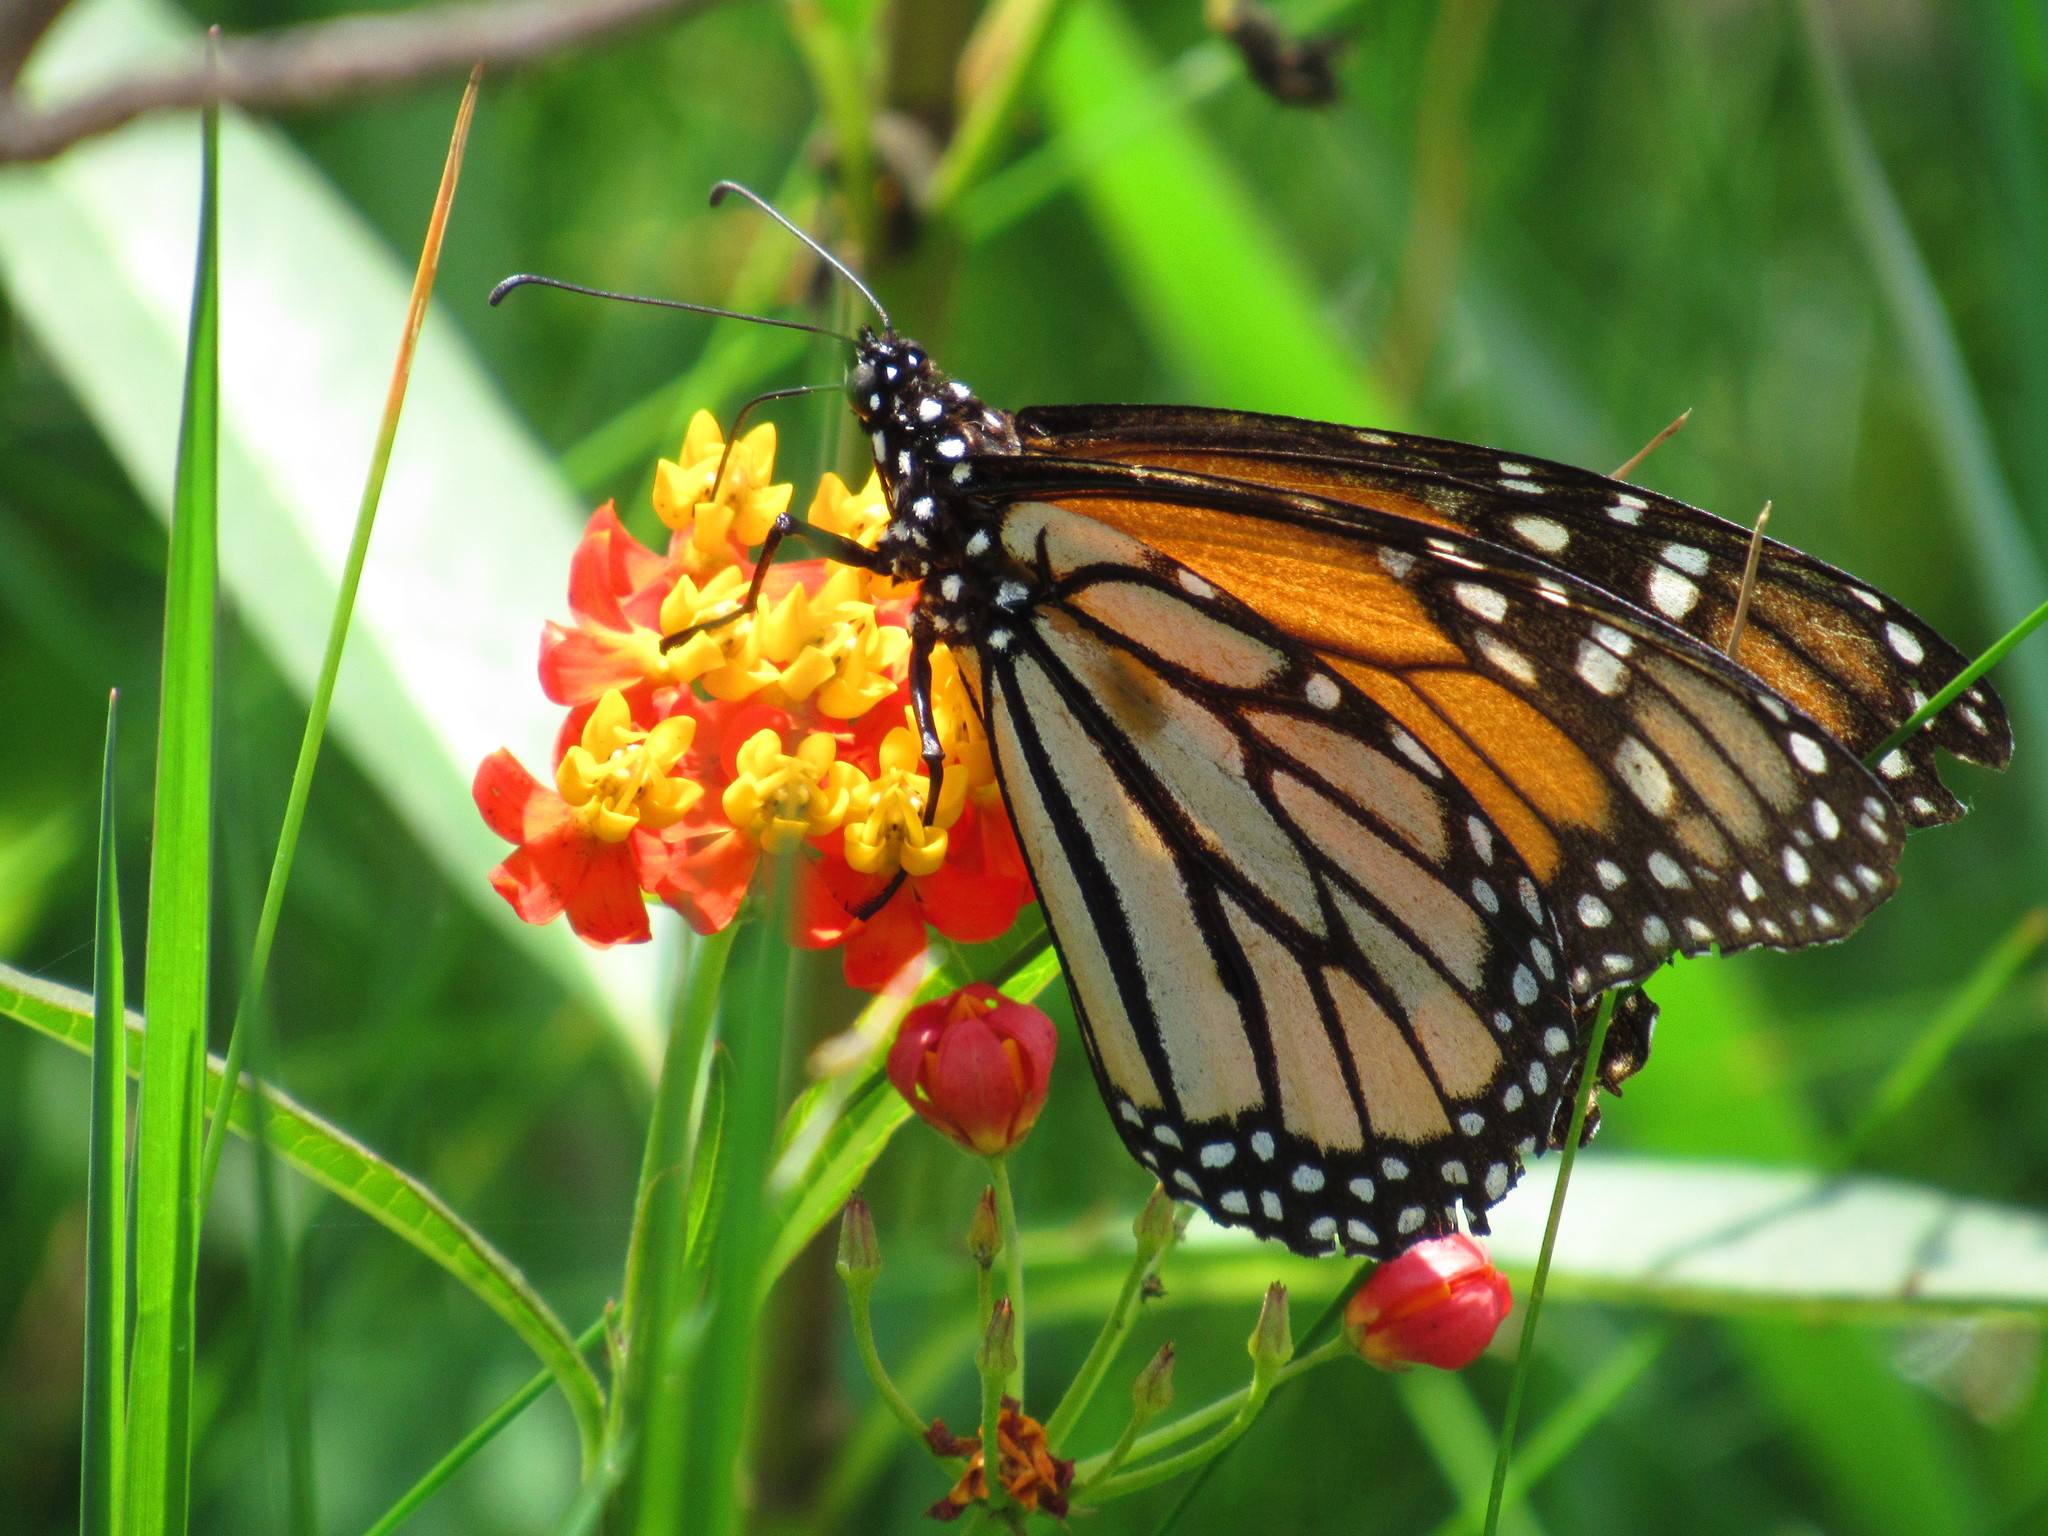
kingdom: Animalia
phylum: Arthropoda
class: Insecta
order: Lepidoptera
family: Nymphalidae
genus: Danaus
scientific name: Danaus plexippus
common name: Monarch
